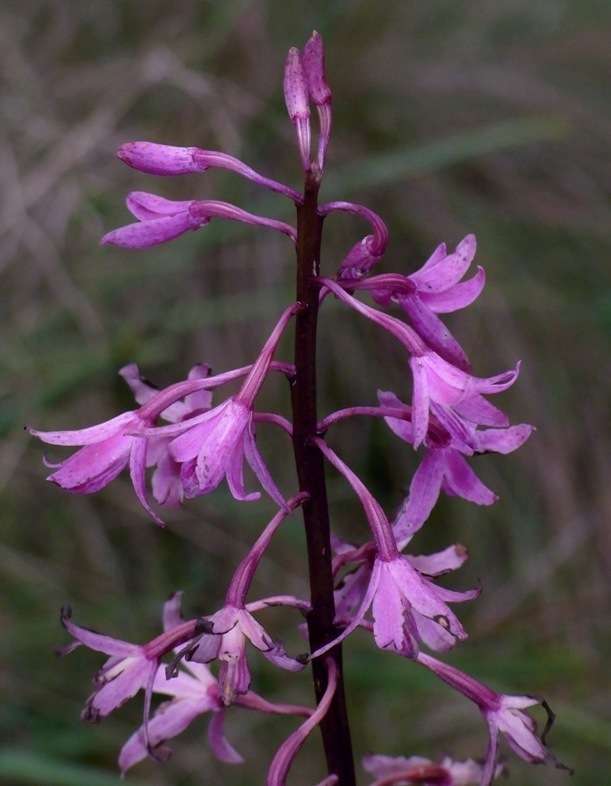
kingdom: Plantae
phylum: Tracheophyta
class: Liliopsida
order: Asparagales
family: Orchidaceae
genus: Dipodium
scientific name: Dipodium roseum
